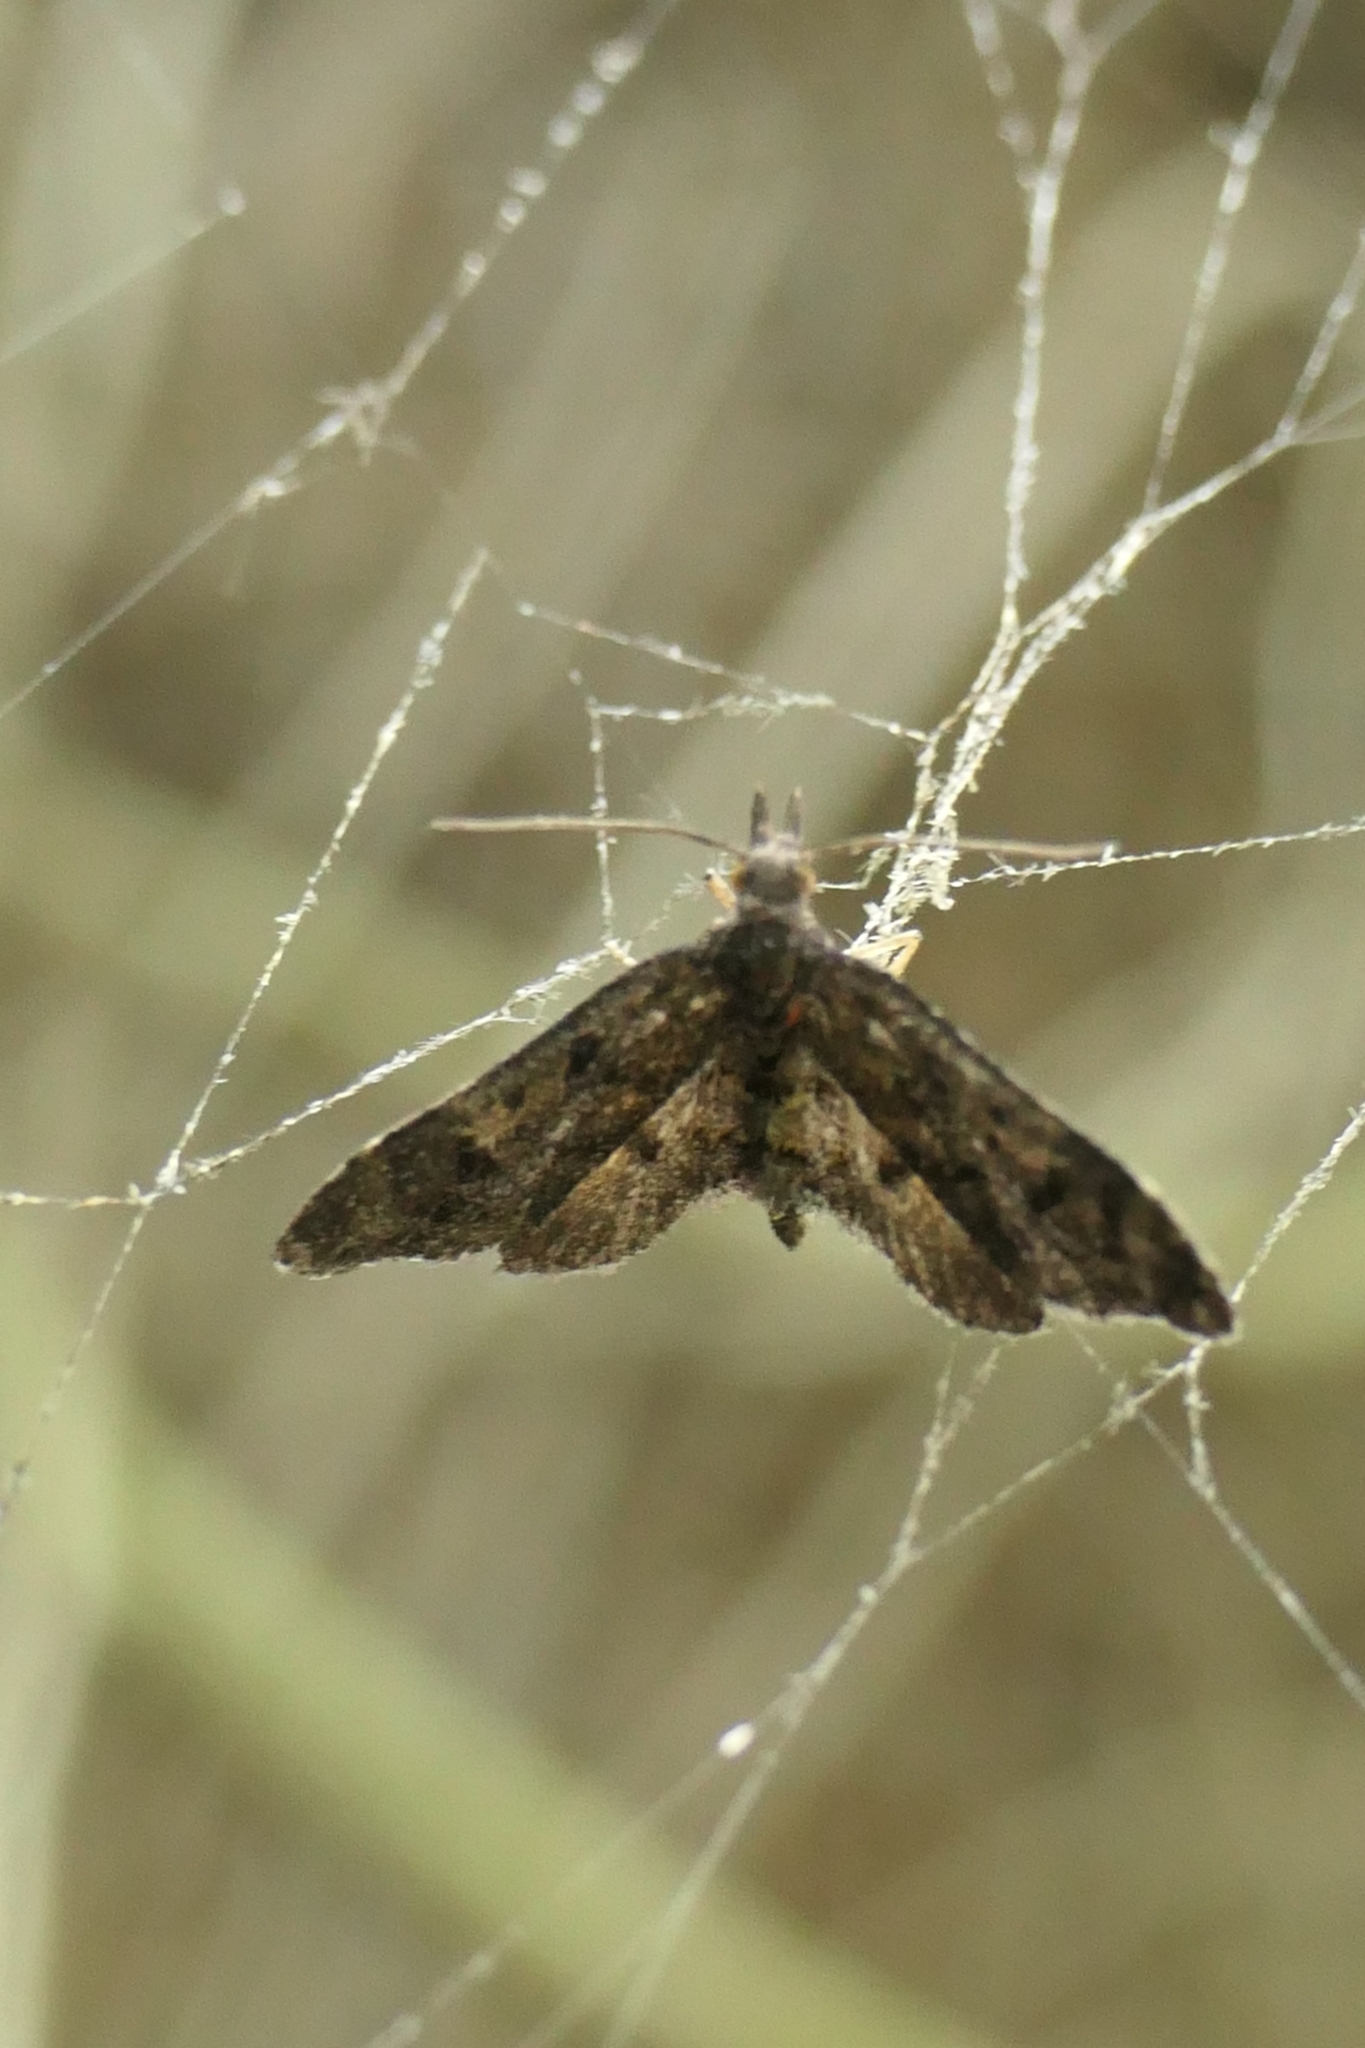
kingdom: Animalia
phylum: Arthropoda
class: Insecta
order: Lepidoptera
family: Copromorphidae
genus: Isonomeutis
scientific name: Isonomeutis amauropa
